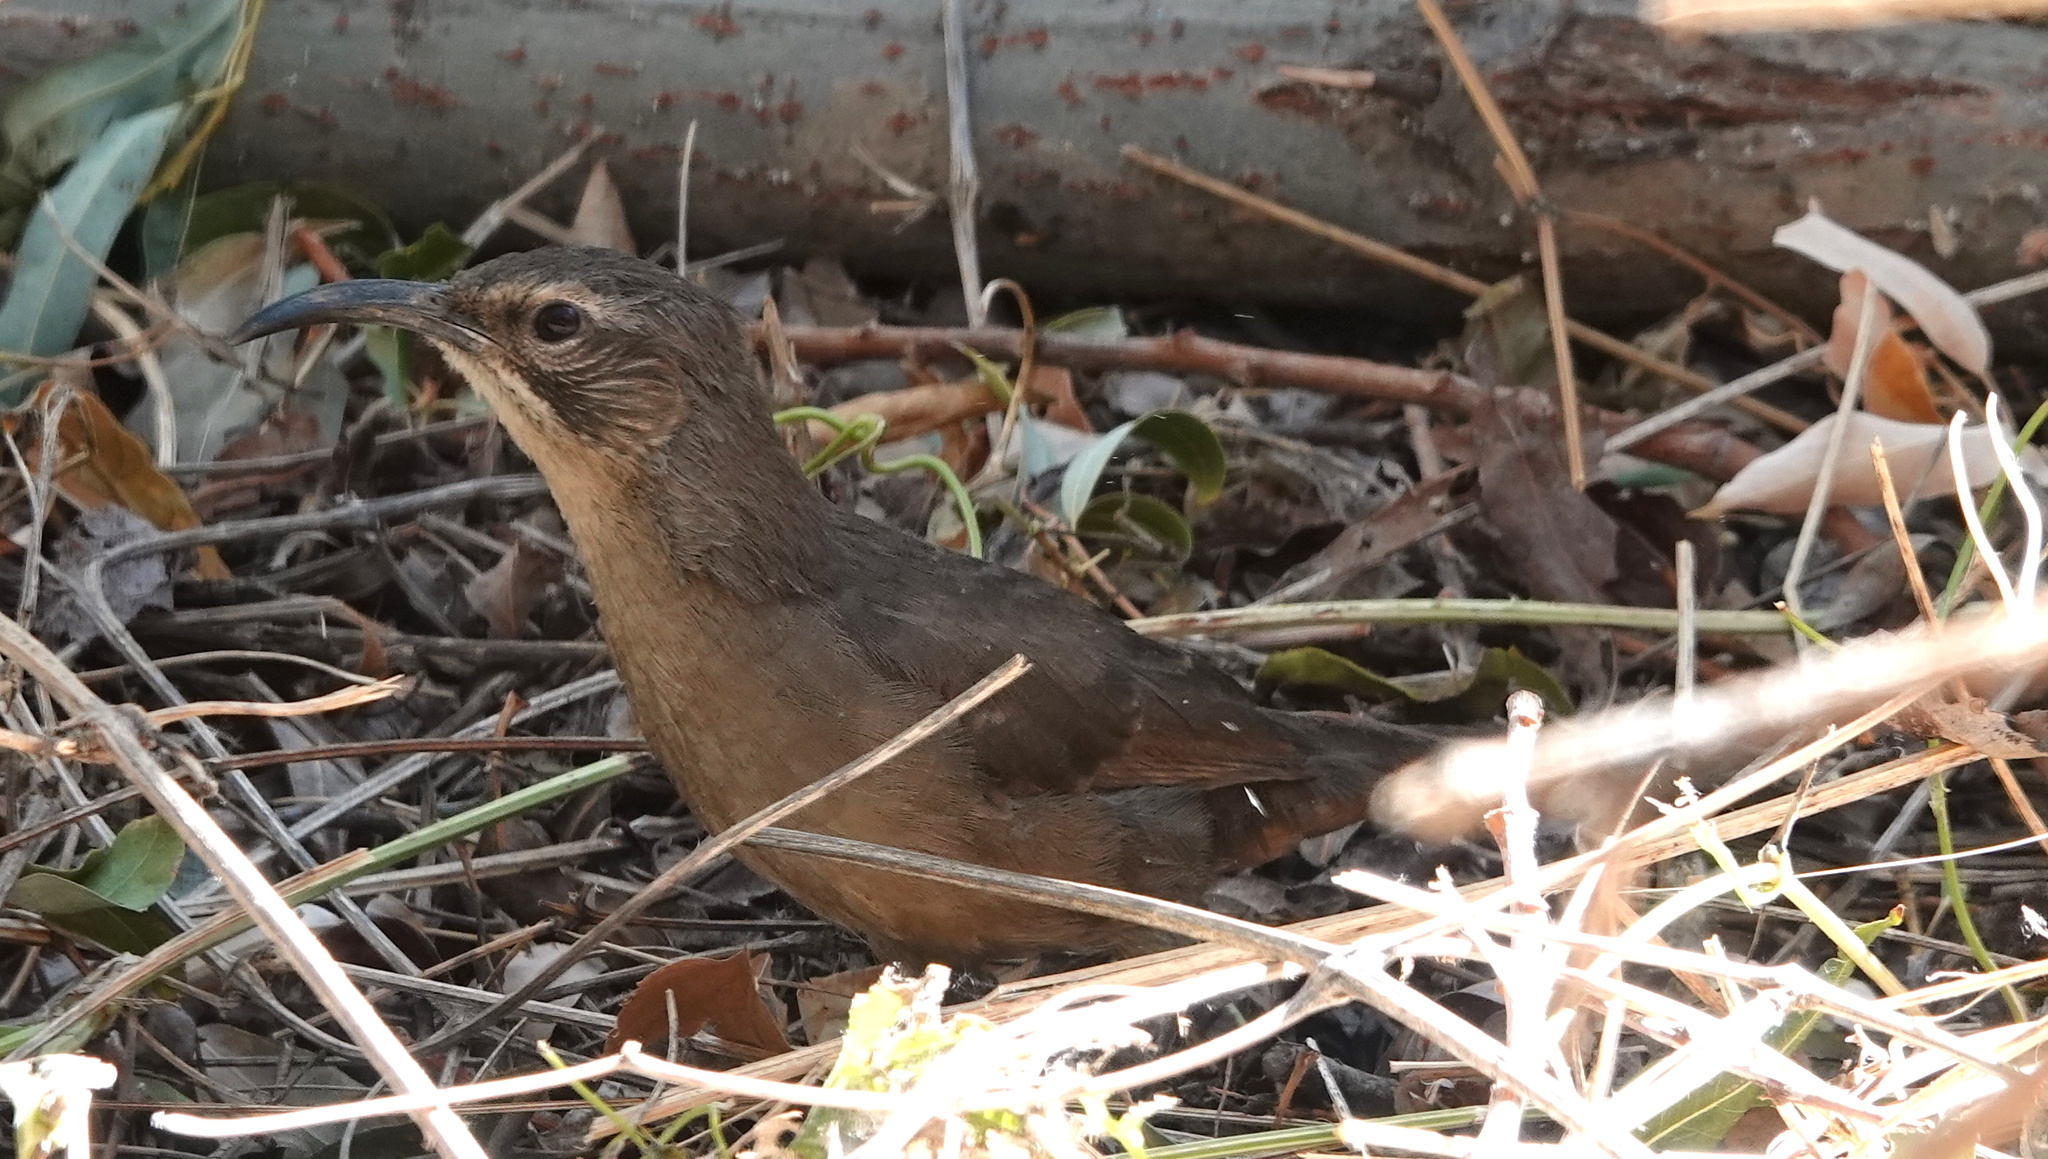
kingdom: Animalia
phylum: Chordata
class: Aves
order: Passeriformes
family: Mimidae
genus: Toxostoma
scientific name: Toxostoma redivivum
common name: California thrasher
